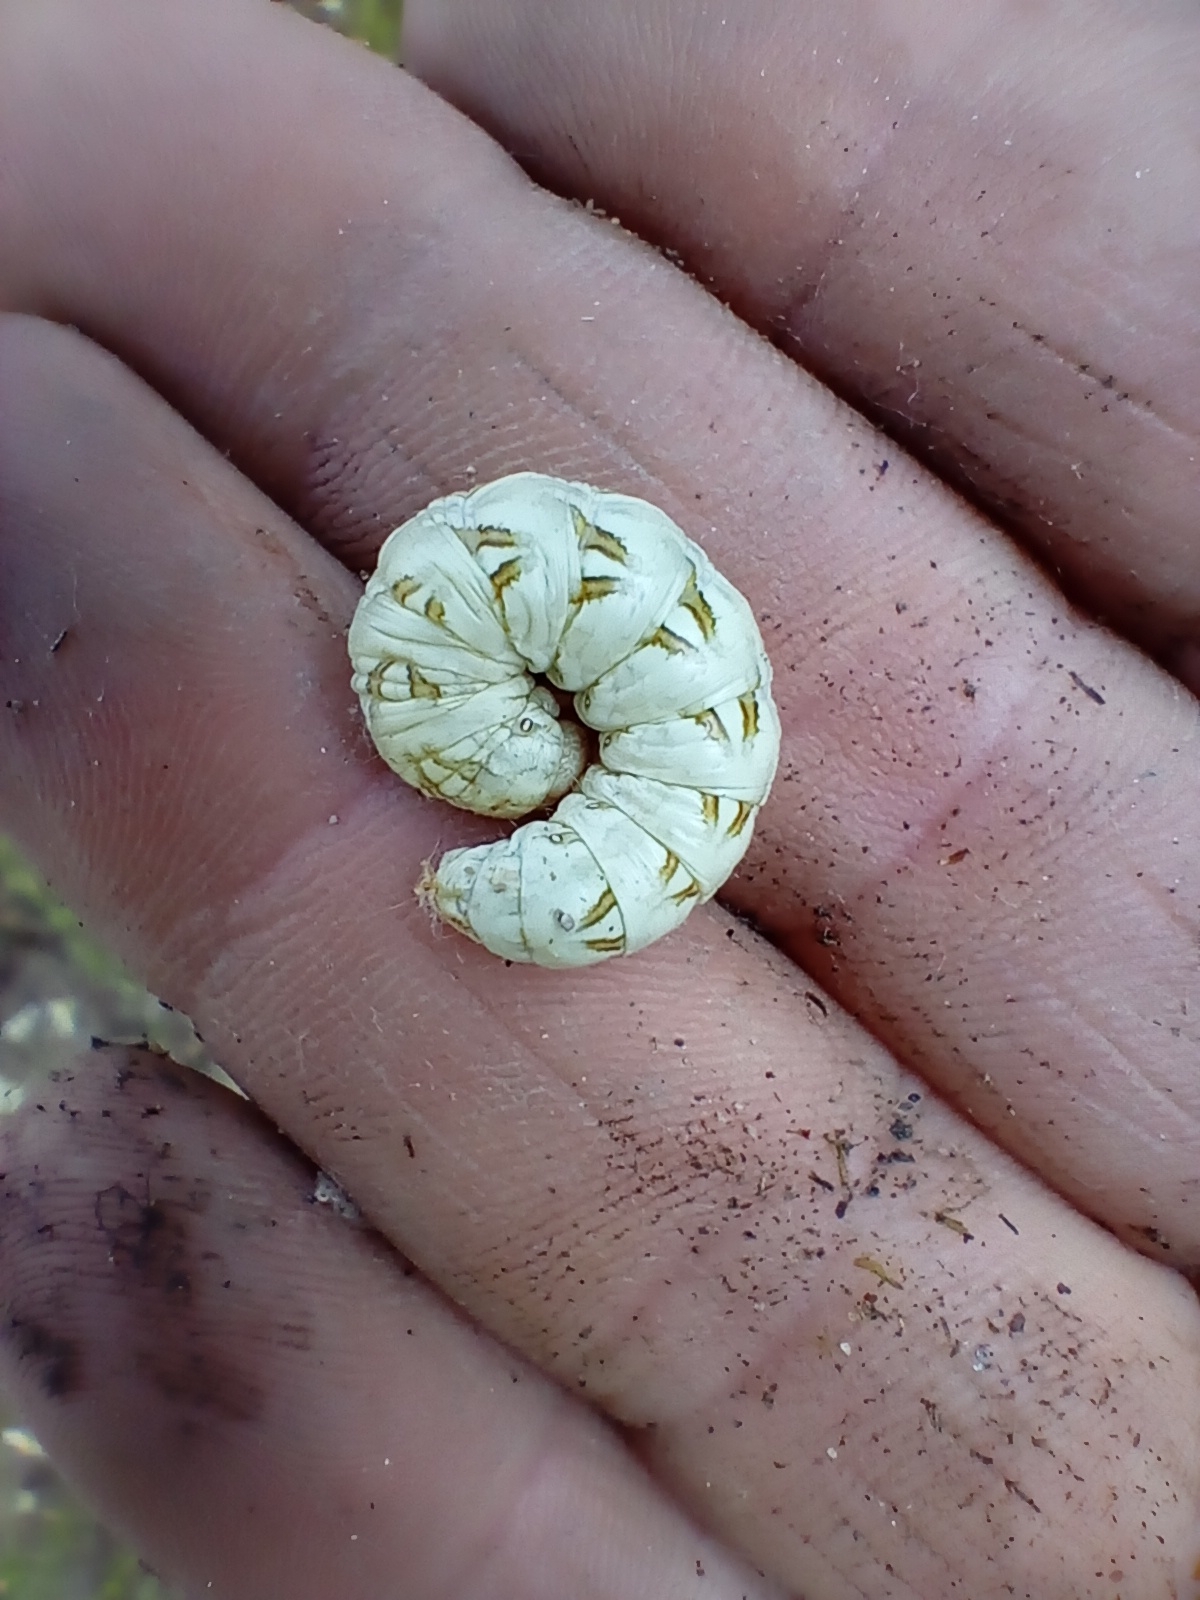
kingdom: Animalia
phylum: Arthropoda
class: Insecta
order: Lepidoptera
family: Noctuidae
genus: Cucullia
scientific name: Cucullia chamomillae
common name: Chamomile shark
